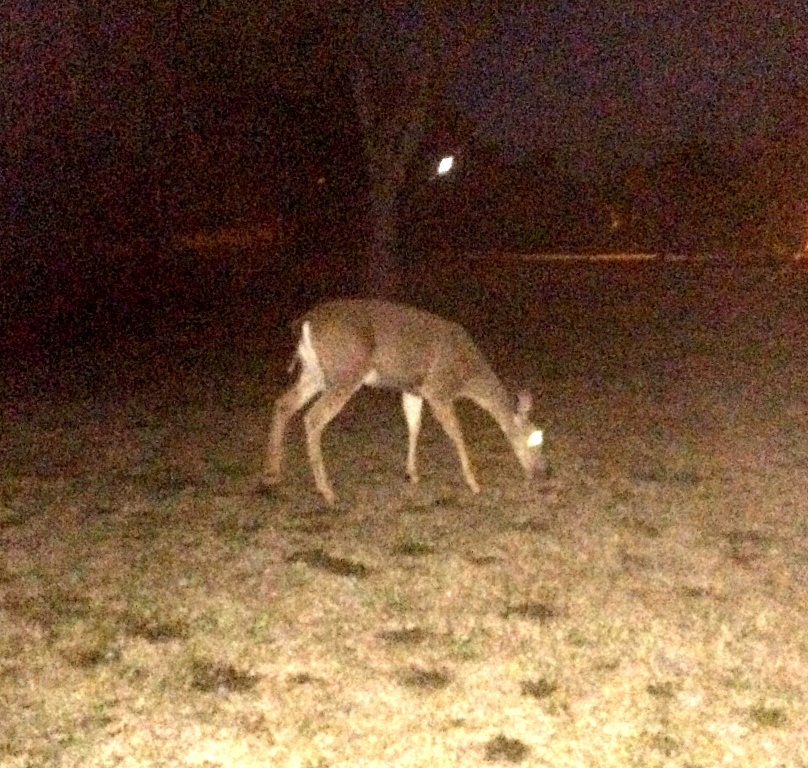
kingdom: Animalia
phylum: Chordata
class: Mammalia
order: Artiodactyla
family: Cervidae
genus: Odocoileus
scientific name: Odocoileus hemionus
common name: Mule deer
